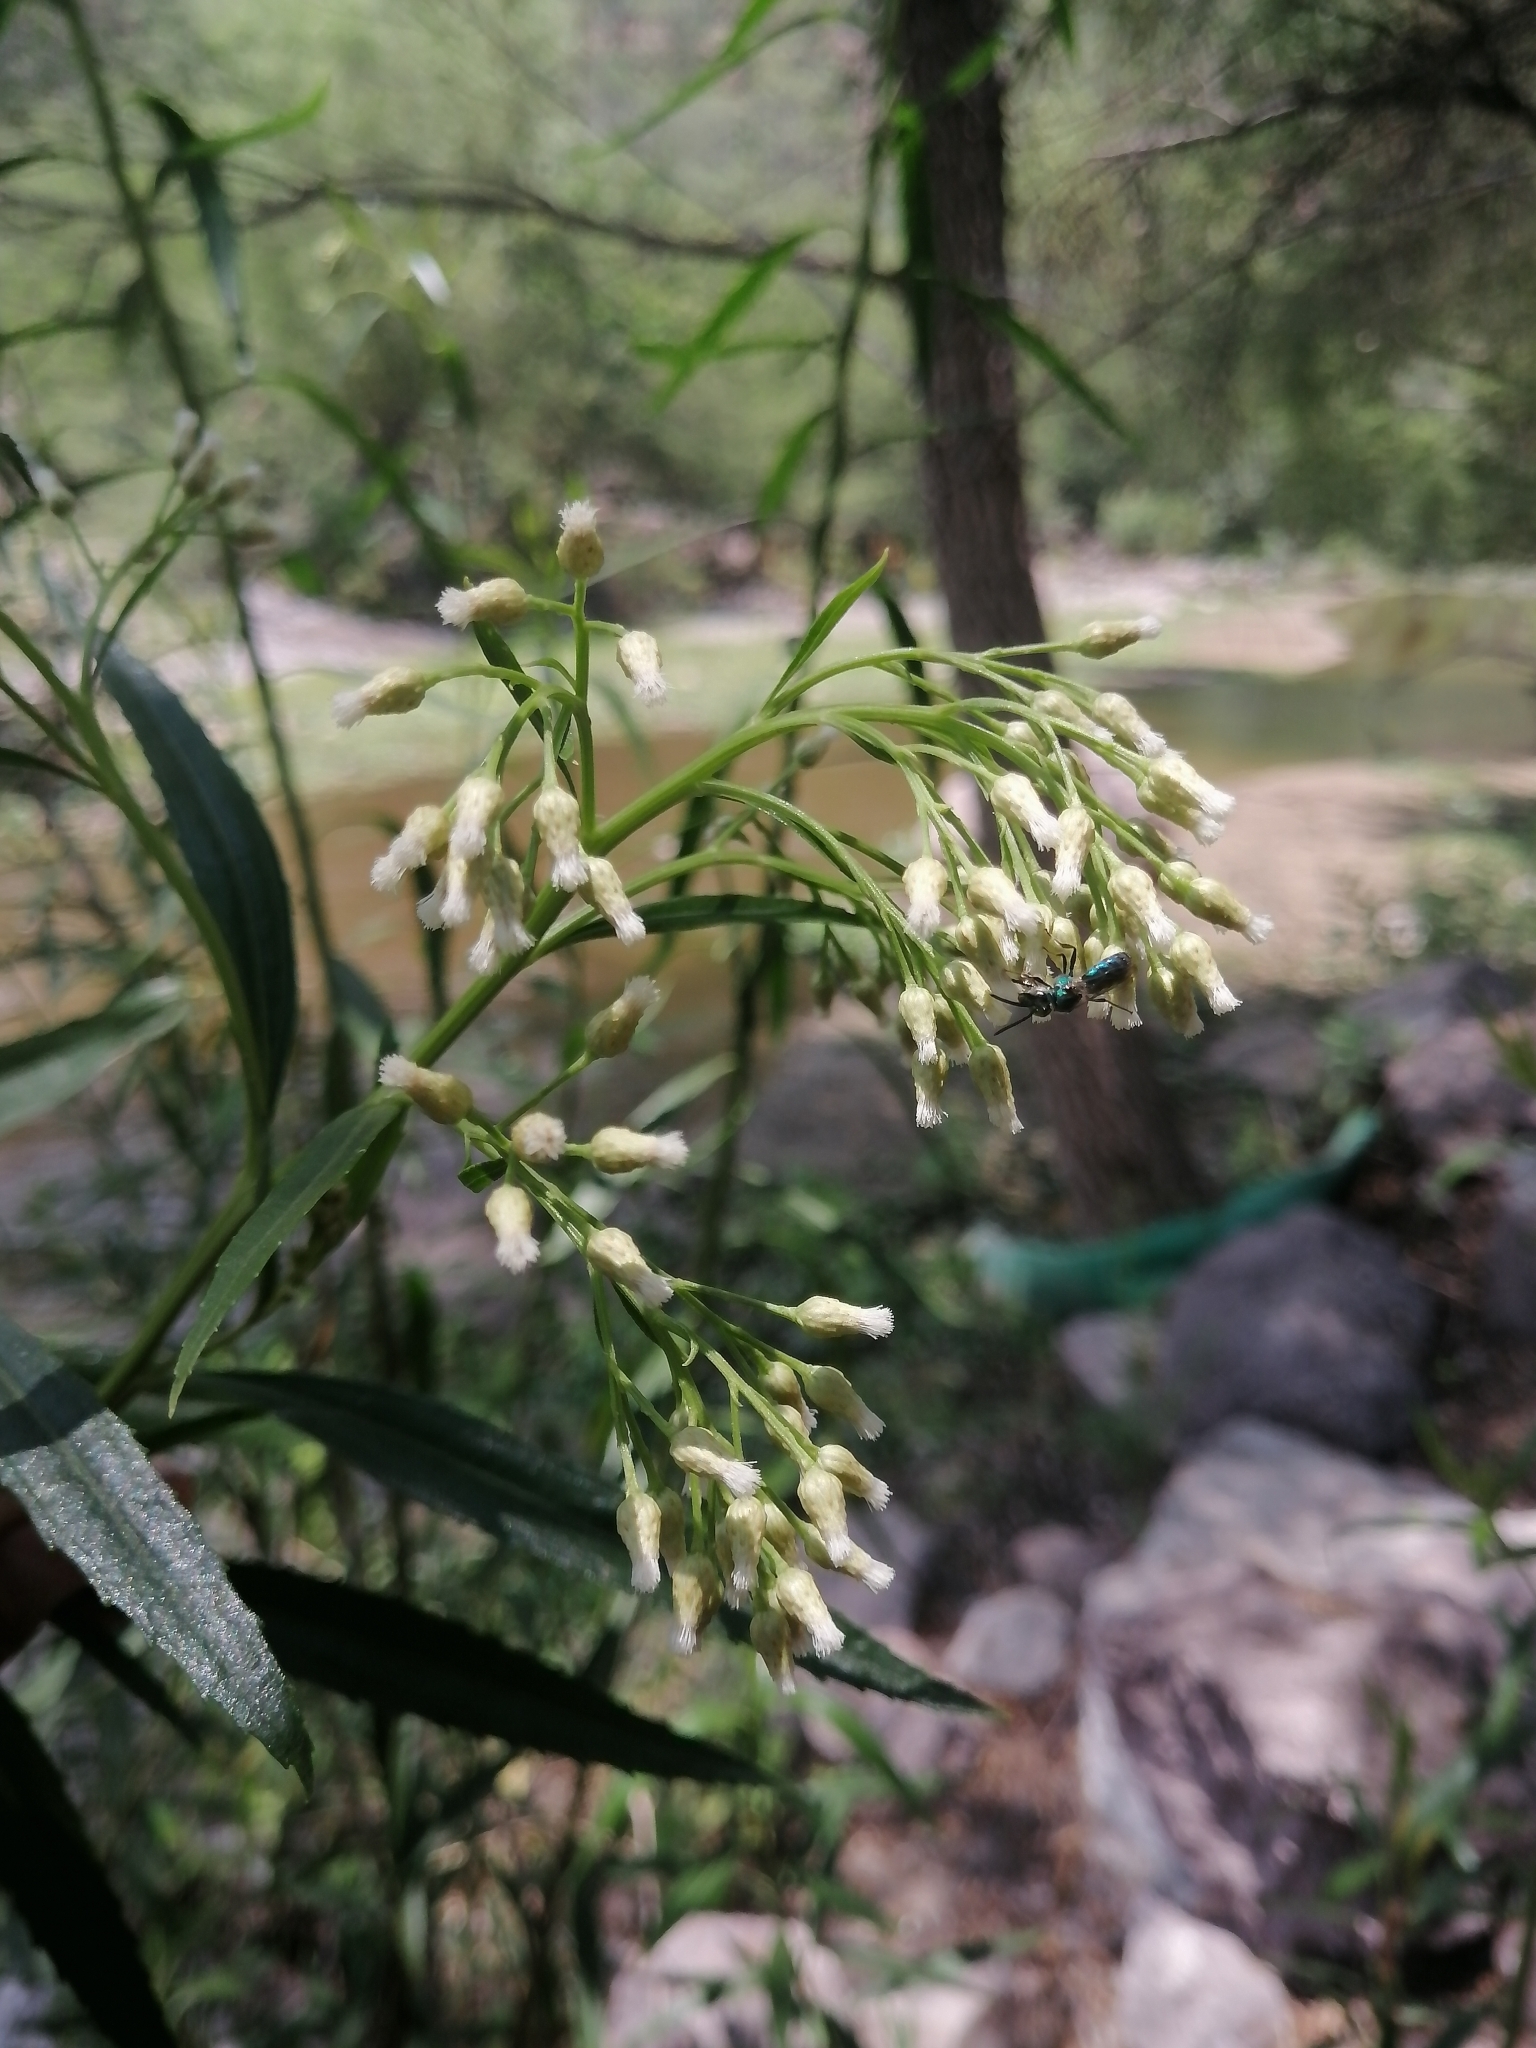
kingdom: Plantae
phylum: Tracheophyta
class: Magnoliopsida
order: Asterales
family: Asteraceae
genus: Baccharis
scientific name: Baccharis salicifolia
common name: Sticky baccharis
